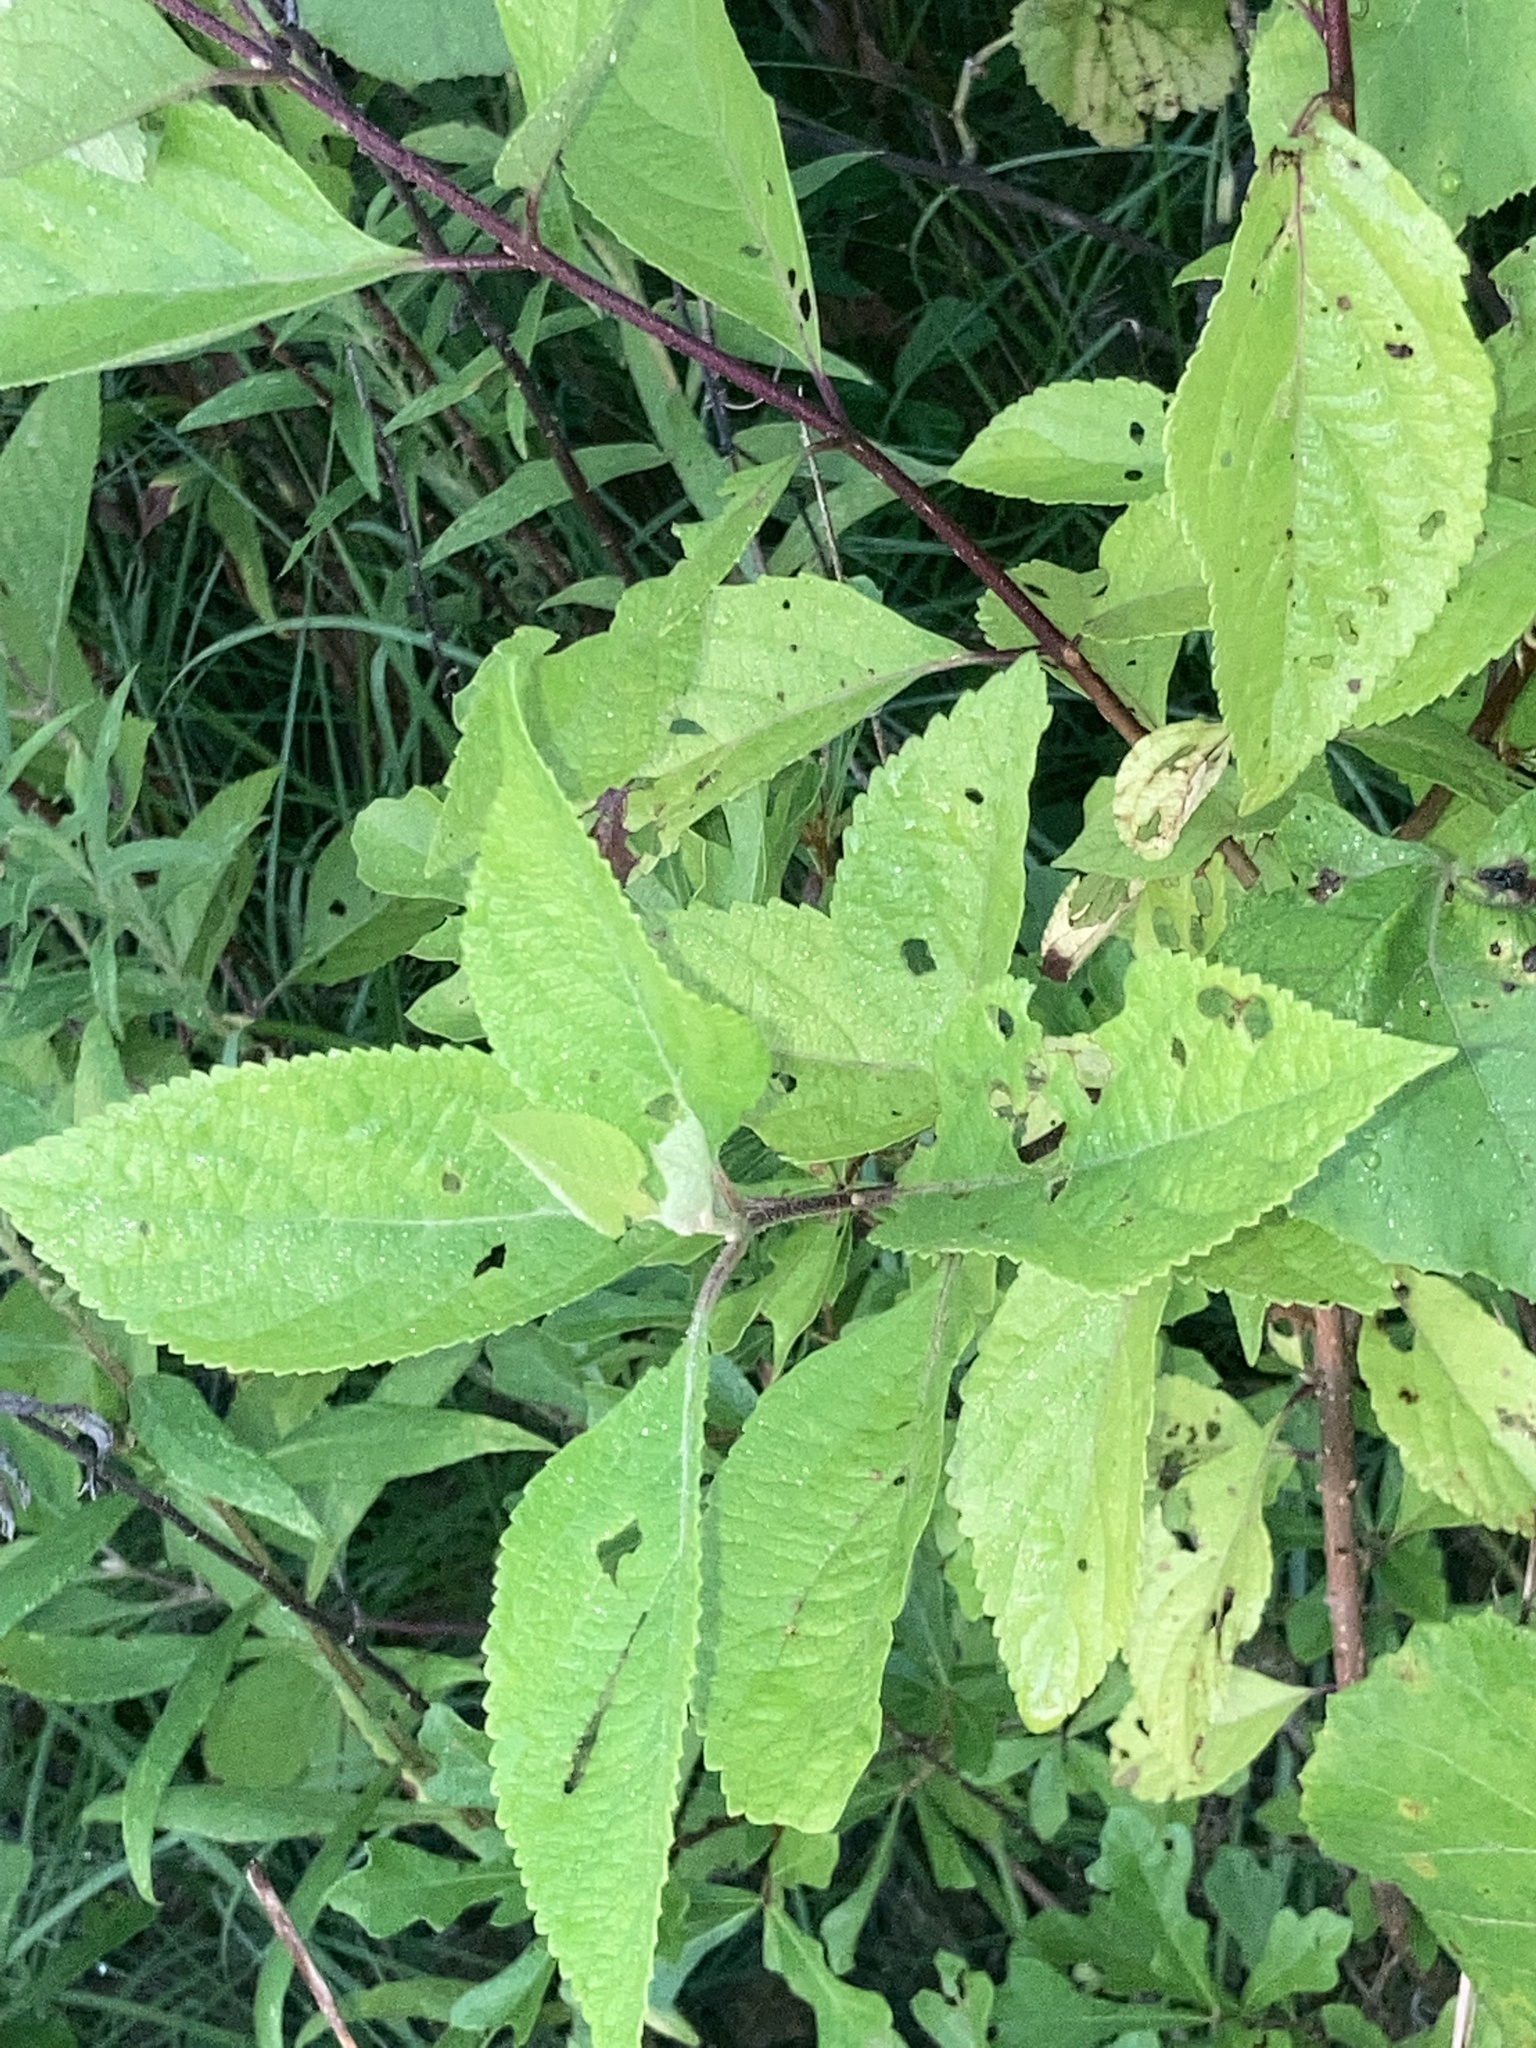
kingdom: Plantae
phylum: Tracheophyta
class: Magnoliopsida
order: Lamiales
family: Lamiaceae
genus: Callicarpa
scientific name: Callicarpa americana
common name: American beautyberry
